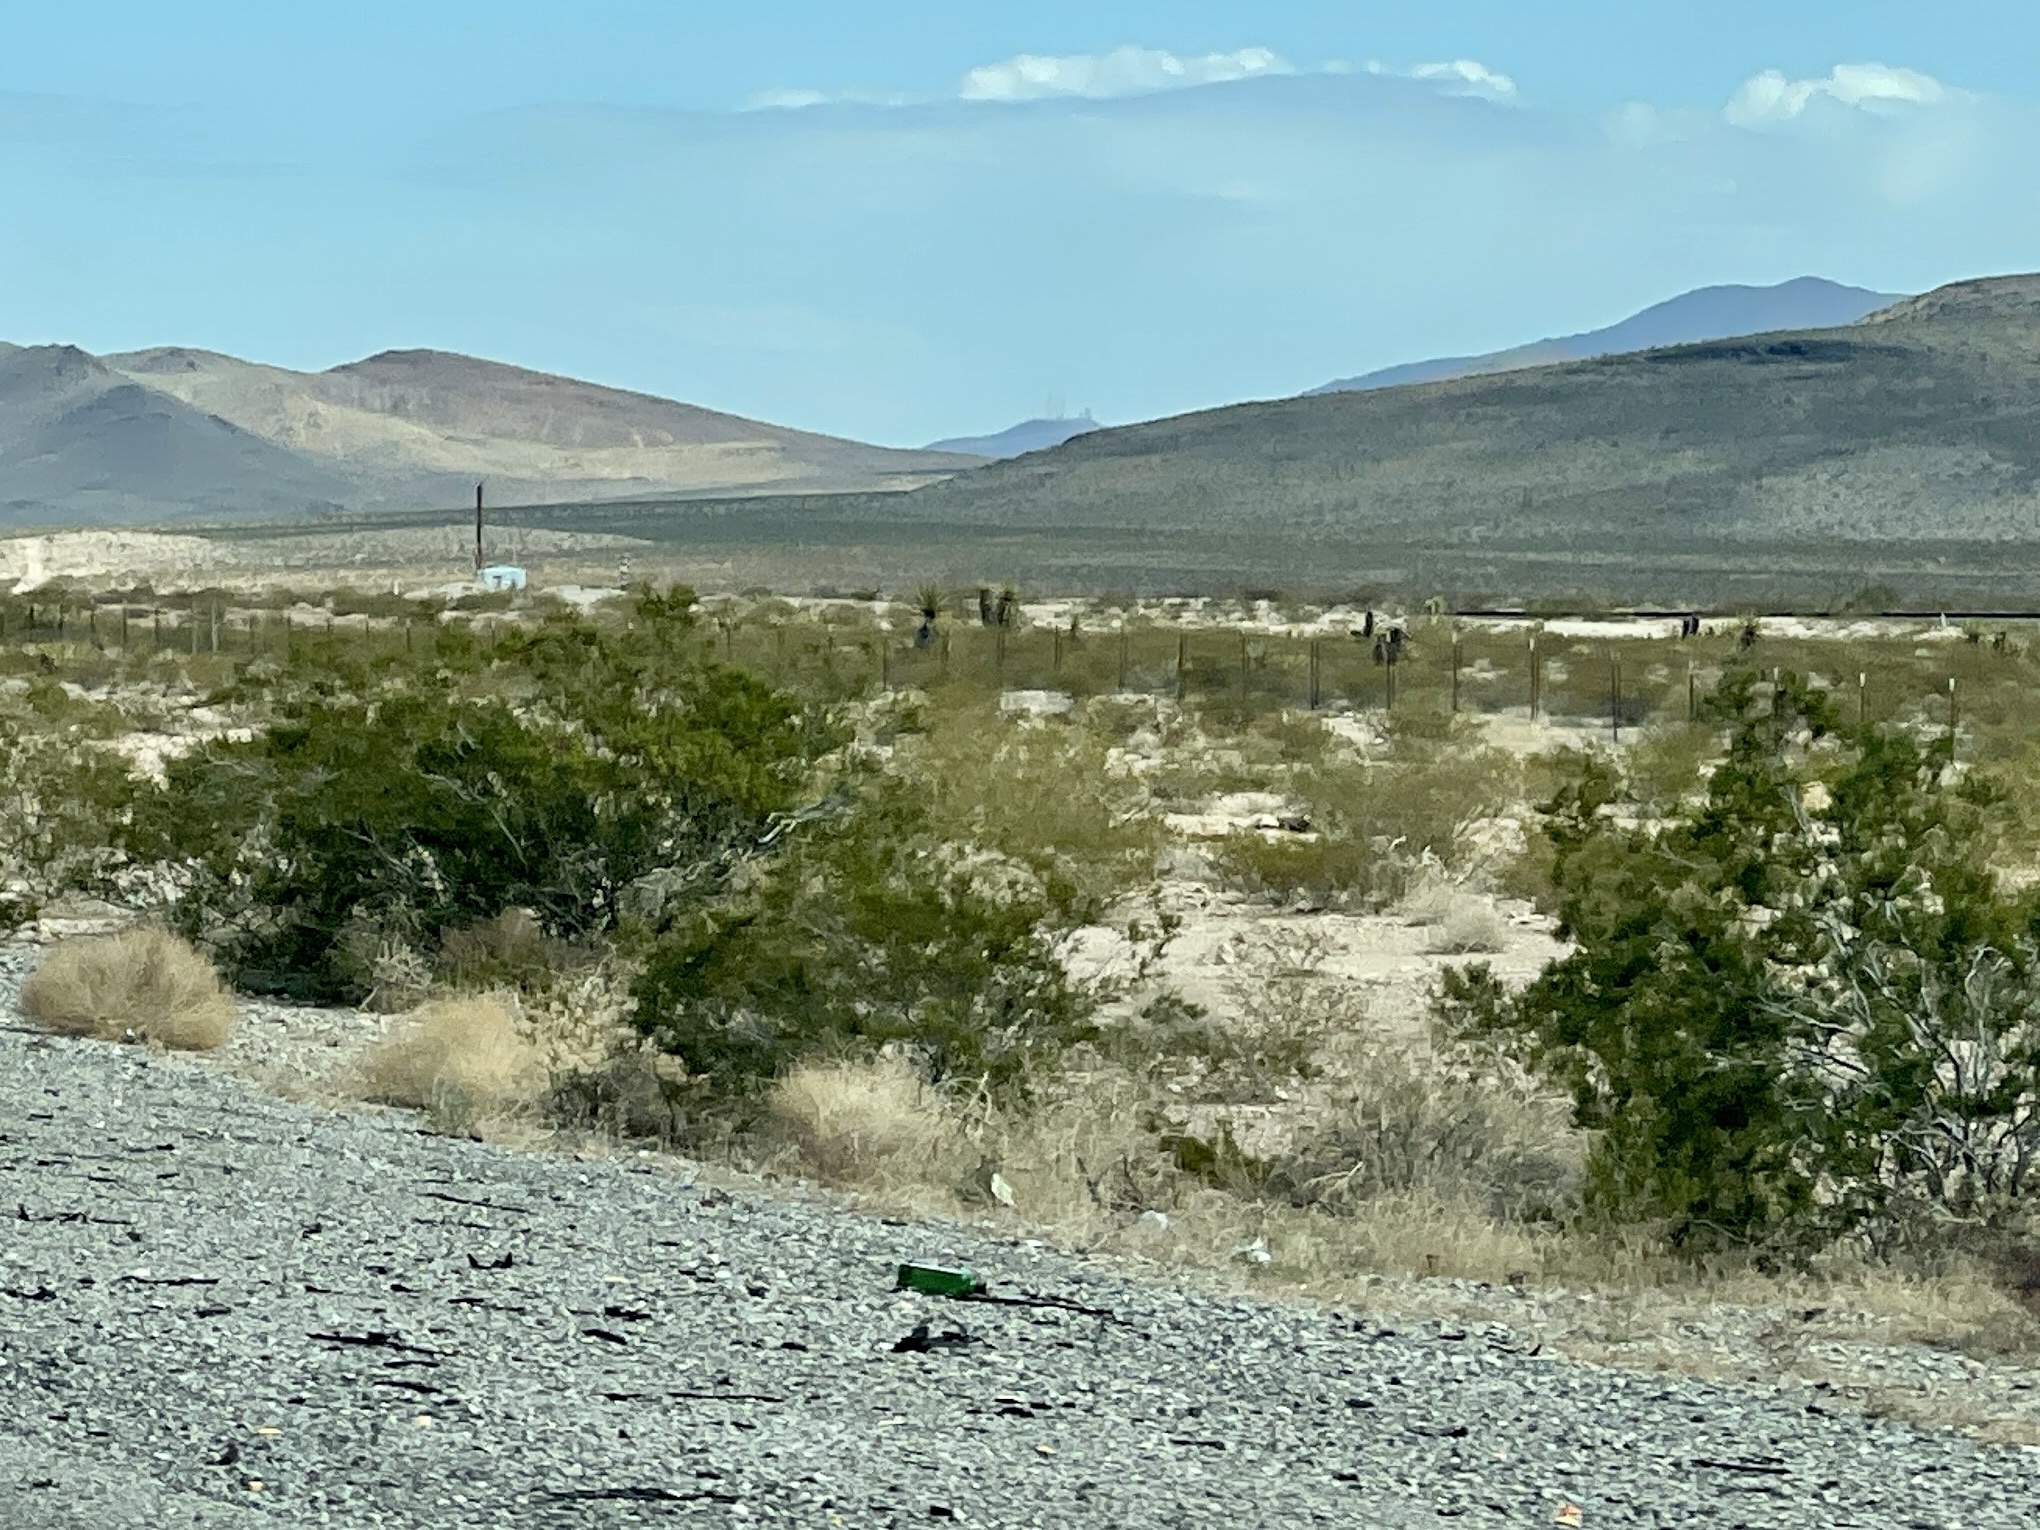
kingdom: Plantae
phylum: Tracheophyta
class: Magnoliopsida
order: Zygophyllales
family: Zygophyllaceae
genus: Larrea
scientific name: Larrea tridentata
